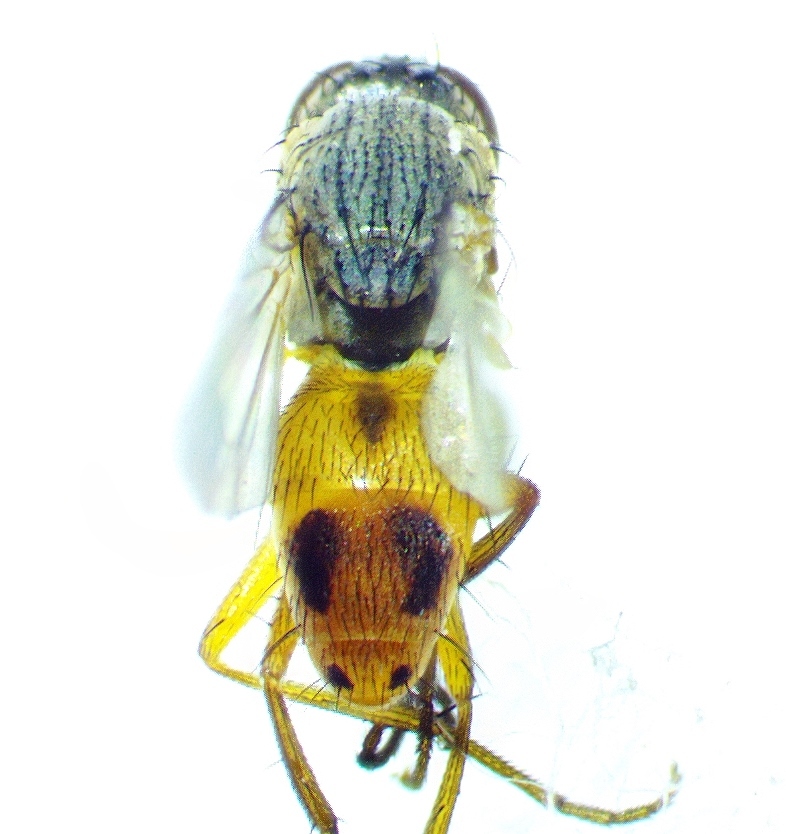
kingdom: Animalia
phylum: Arthropoda
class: Insecta
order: Diptera
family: Muscidae
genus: Atherigona
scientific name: Atherigona reversura
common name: Bermudagrass stem maggot
